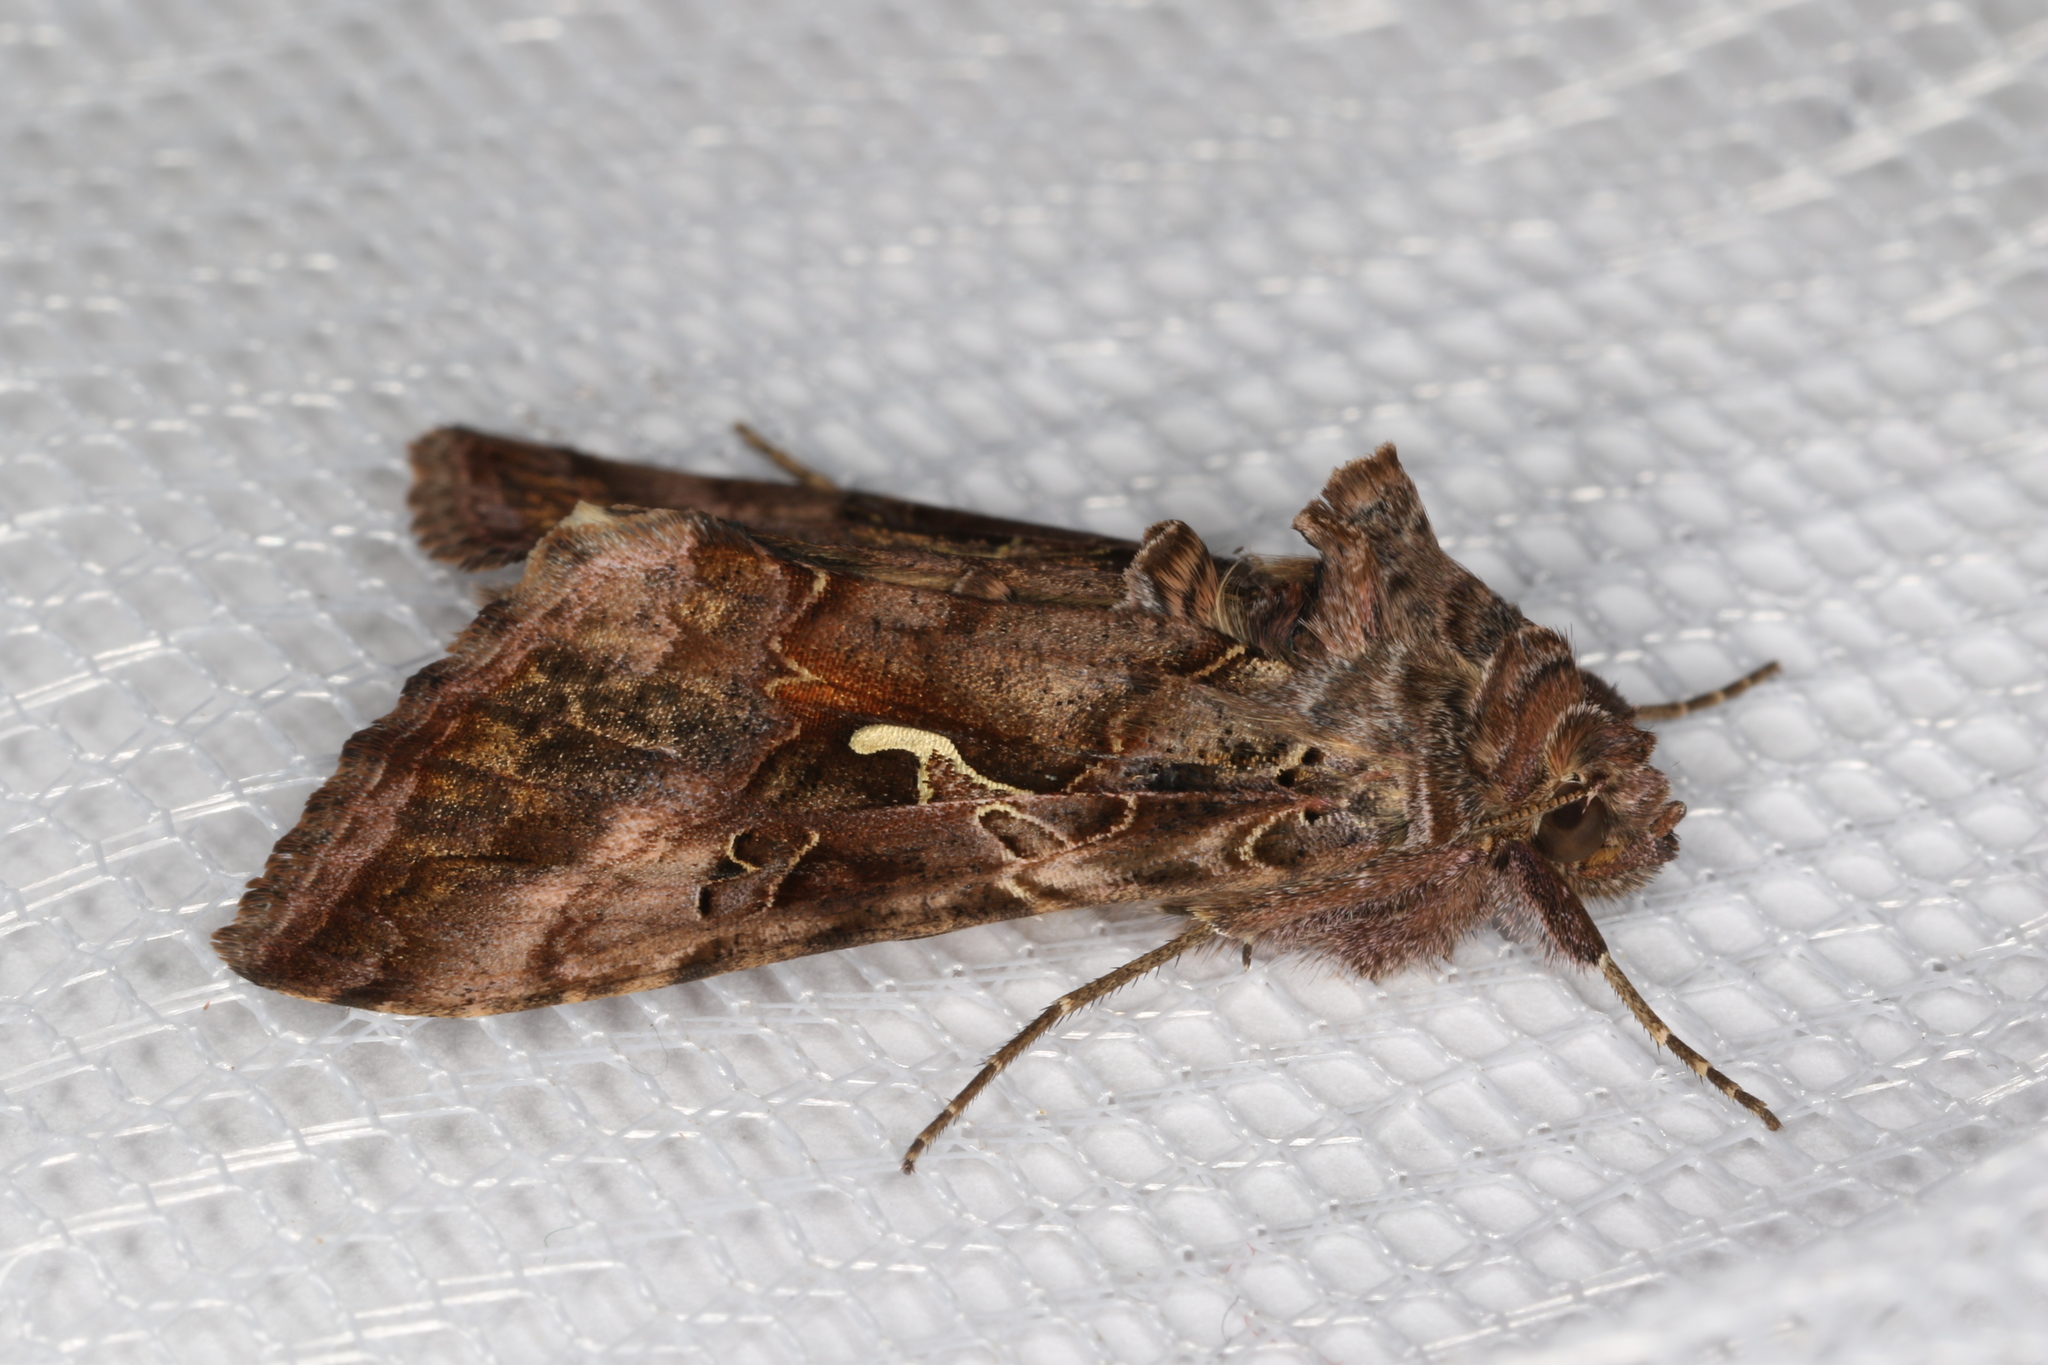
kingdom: Animalia
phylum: Arthropoda
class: Insecta
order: Lepidoptera
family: Noctuidae
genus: Autographa
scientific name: Autographa gamma
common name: Silver y
